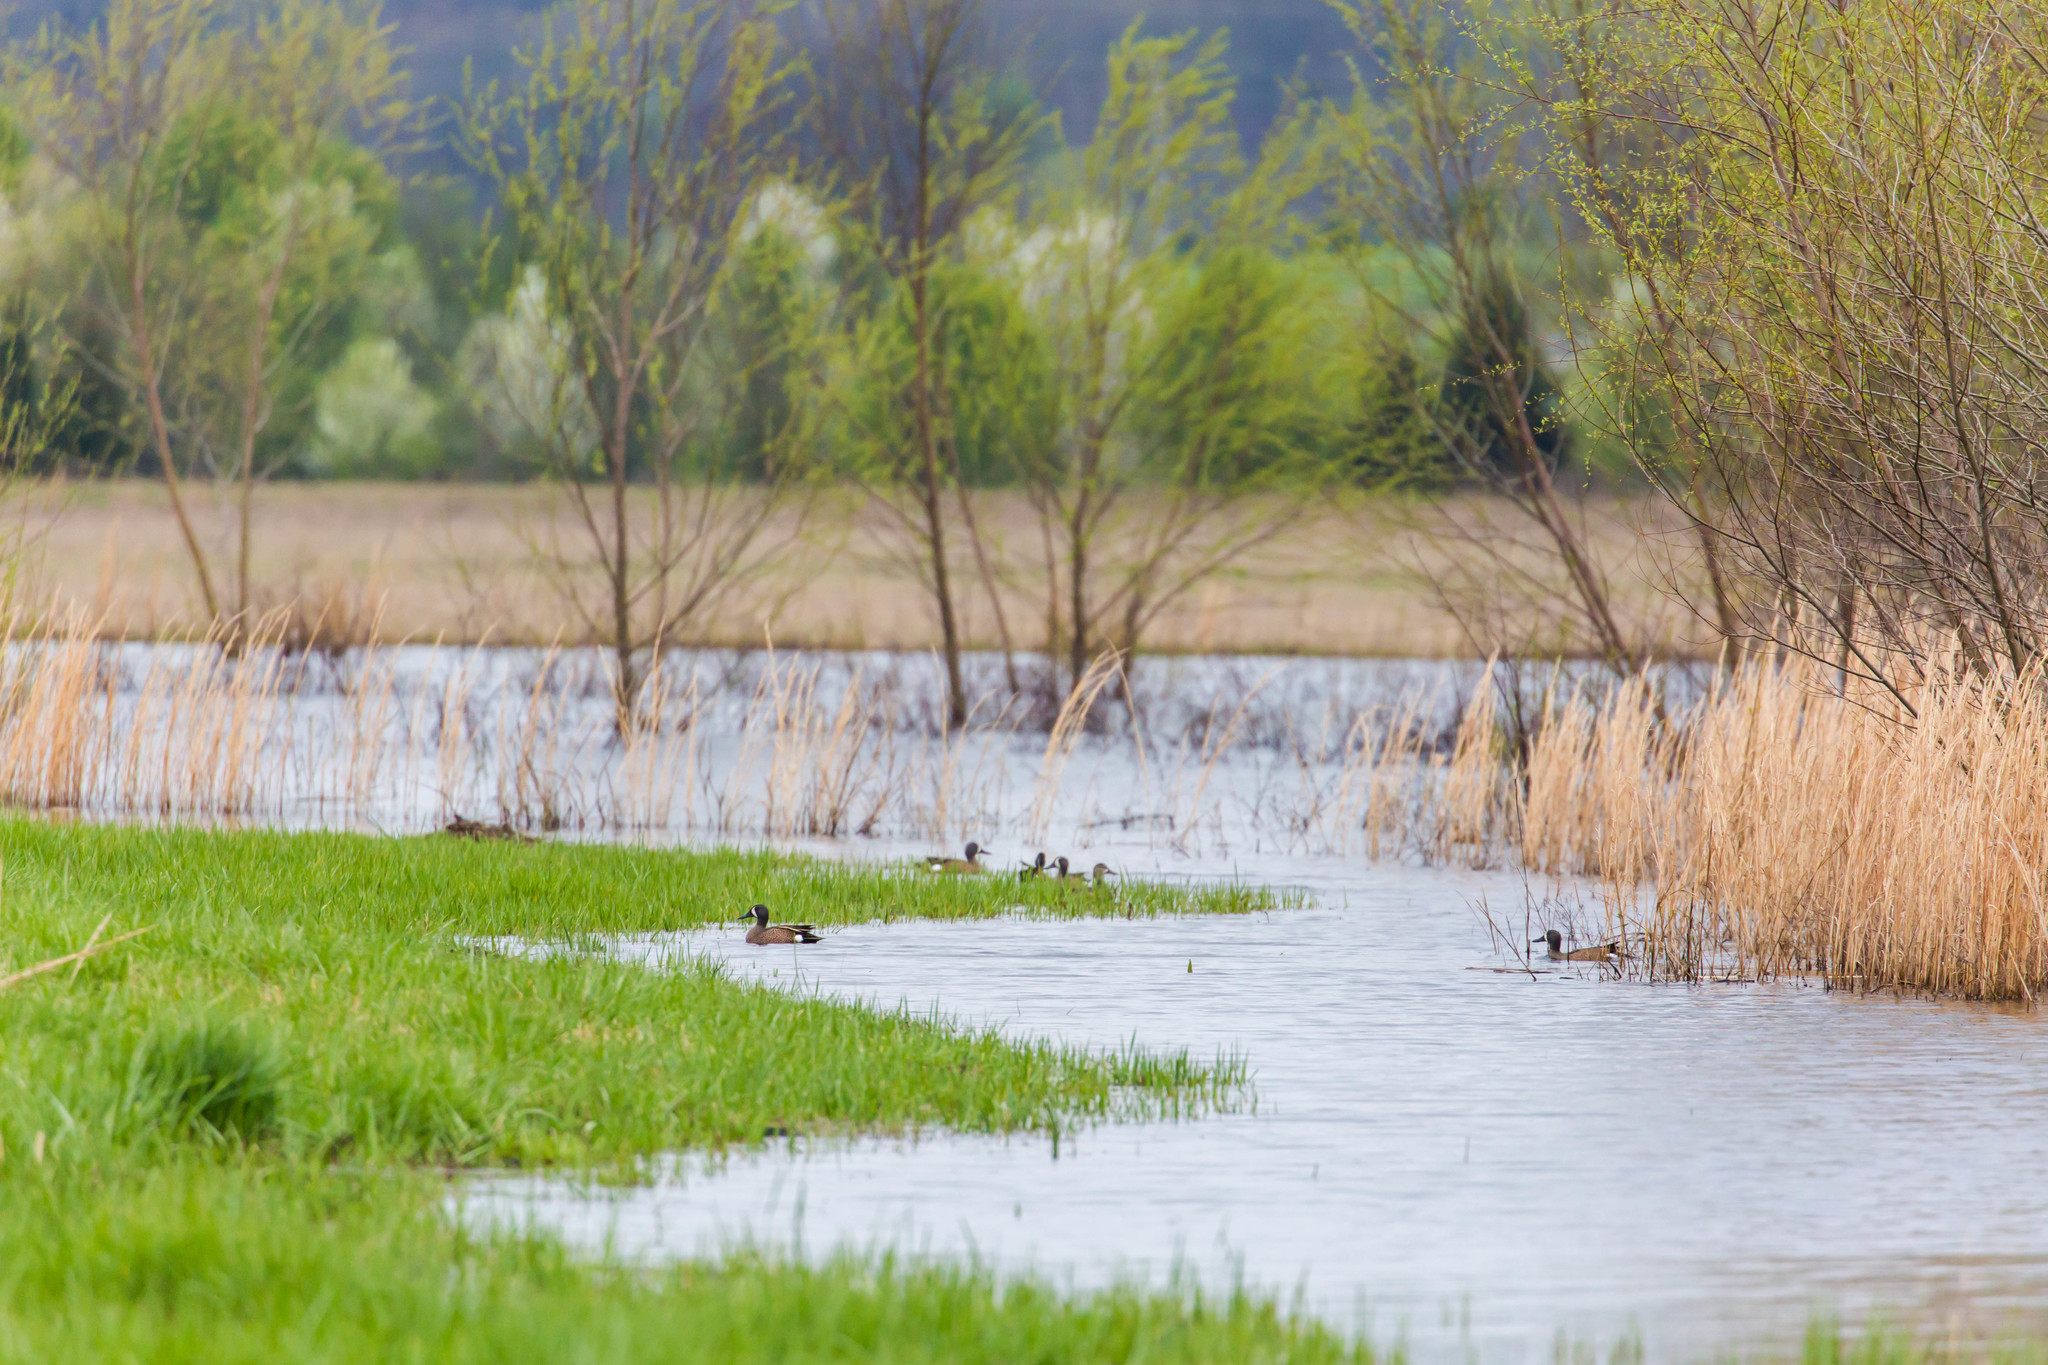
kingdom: Animalia
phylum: Chordata
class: Aves
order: Anseriformes
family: Anatidae
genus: Spatula
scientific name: Spatula discors
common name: Blue-winged teal
